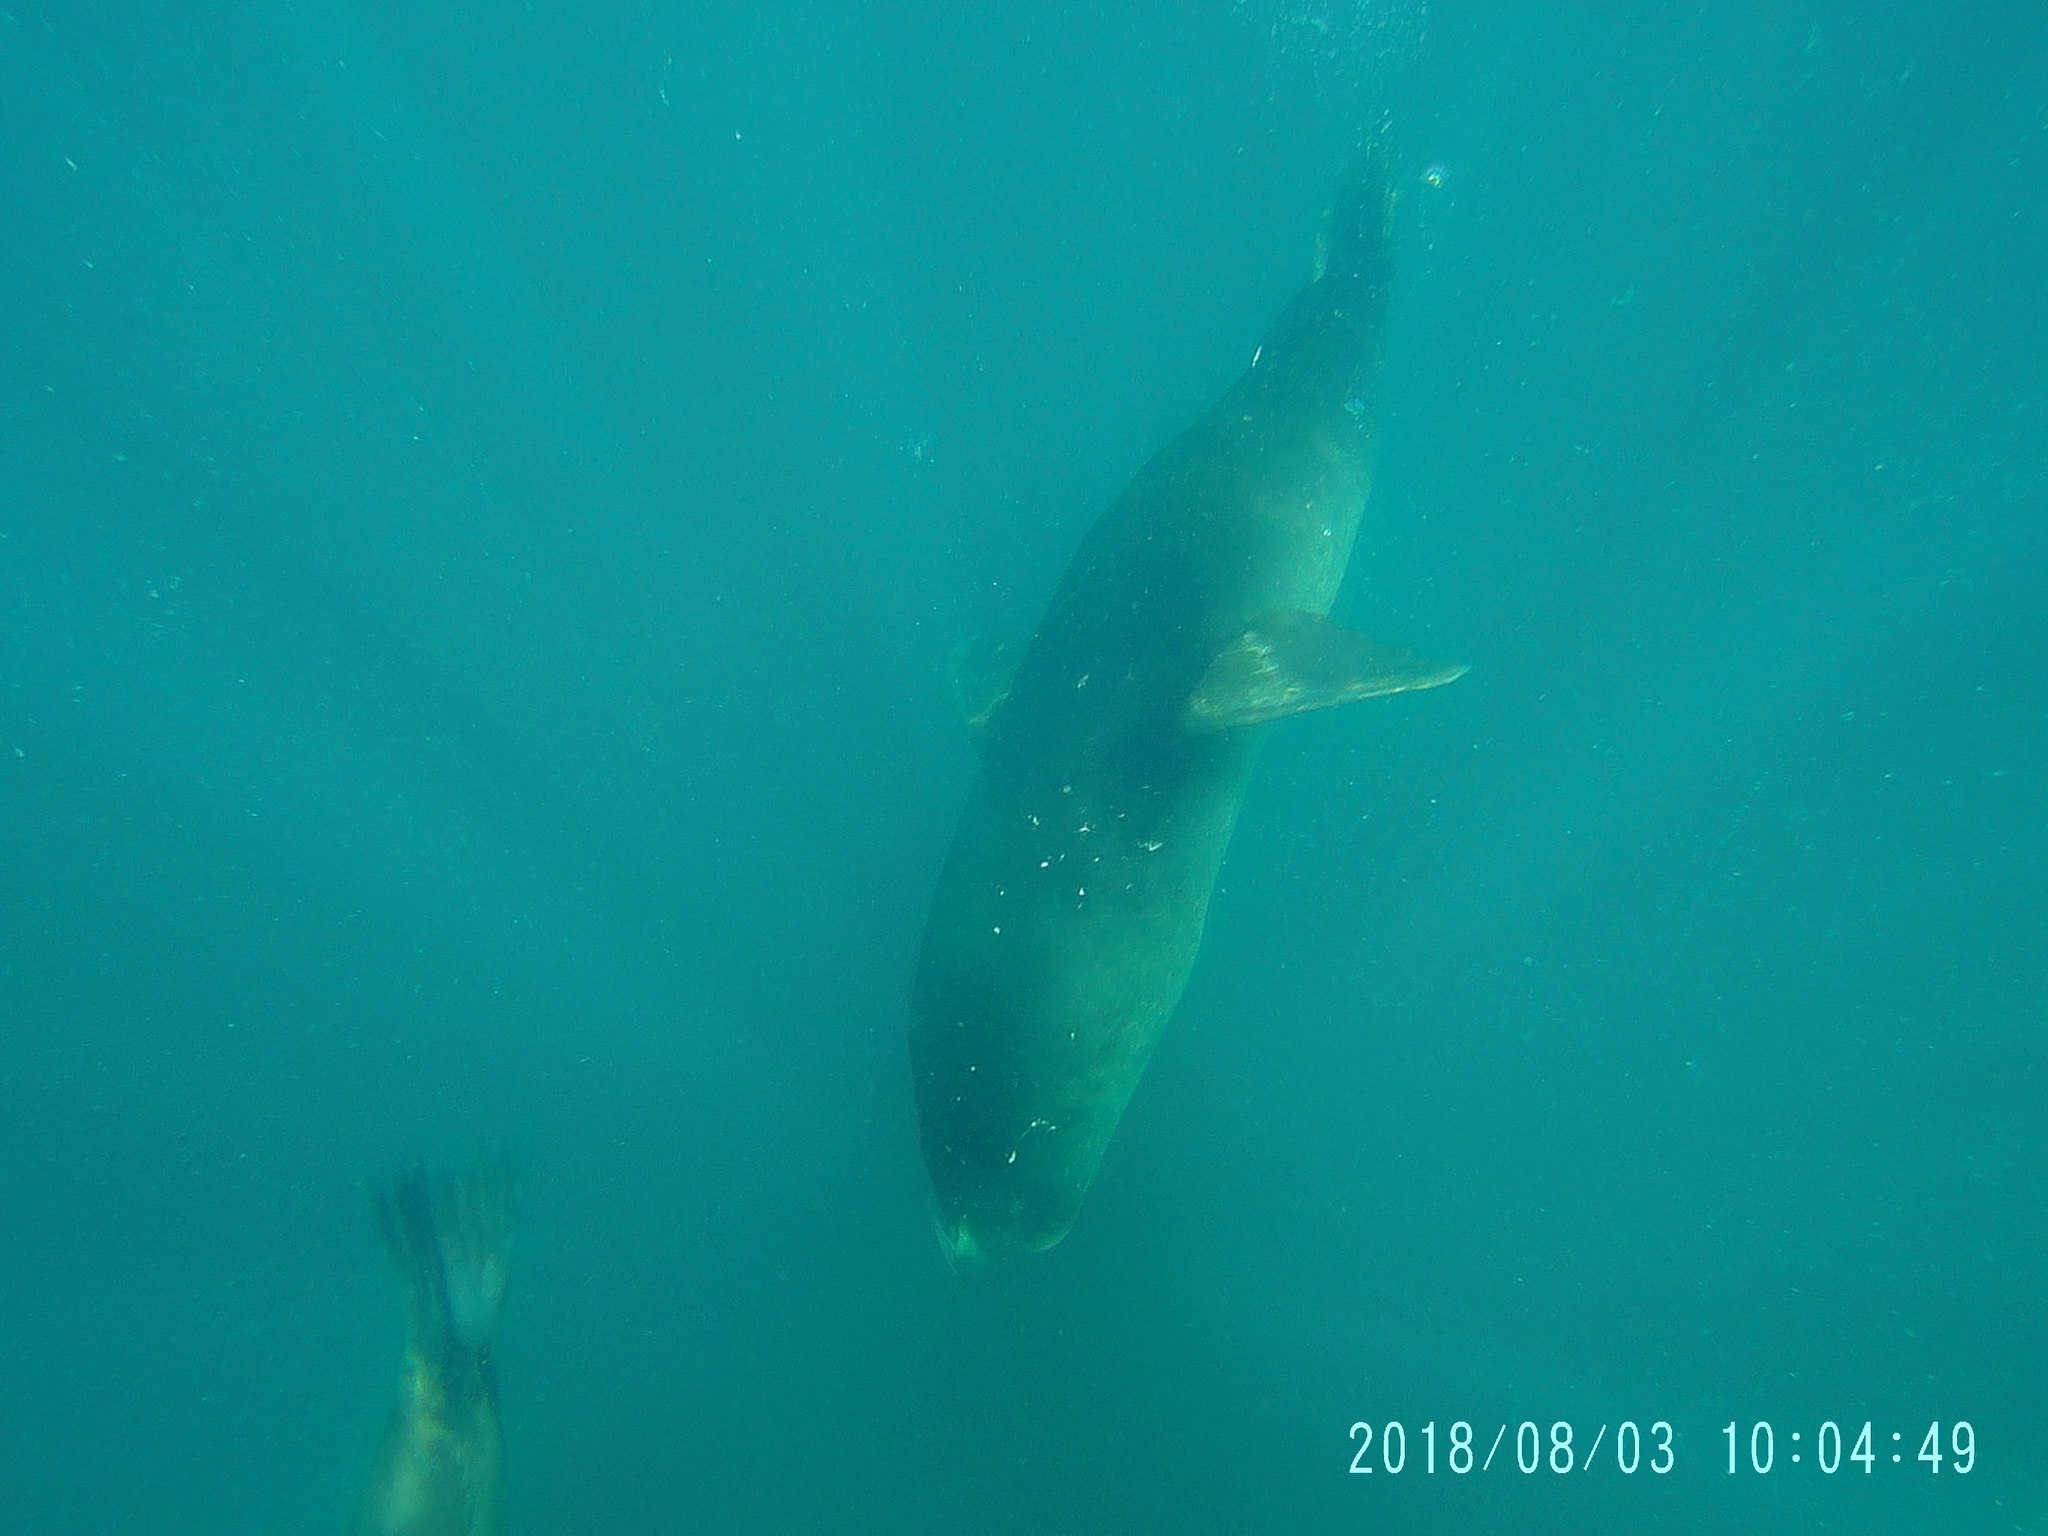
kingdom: Animalia
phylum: Chordata
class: Mammalia
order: Carnivora
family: Otariidae
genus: Zalophus
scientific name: Zalophus californianus
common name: California sea lion
